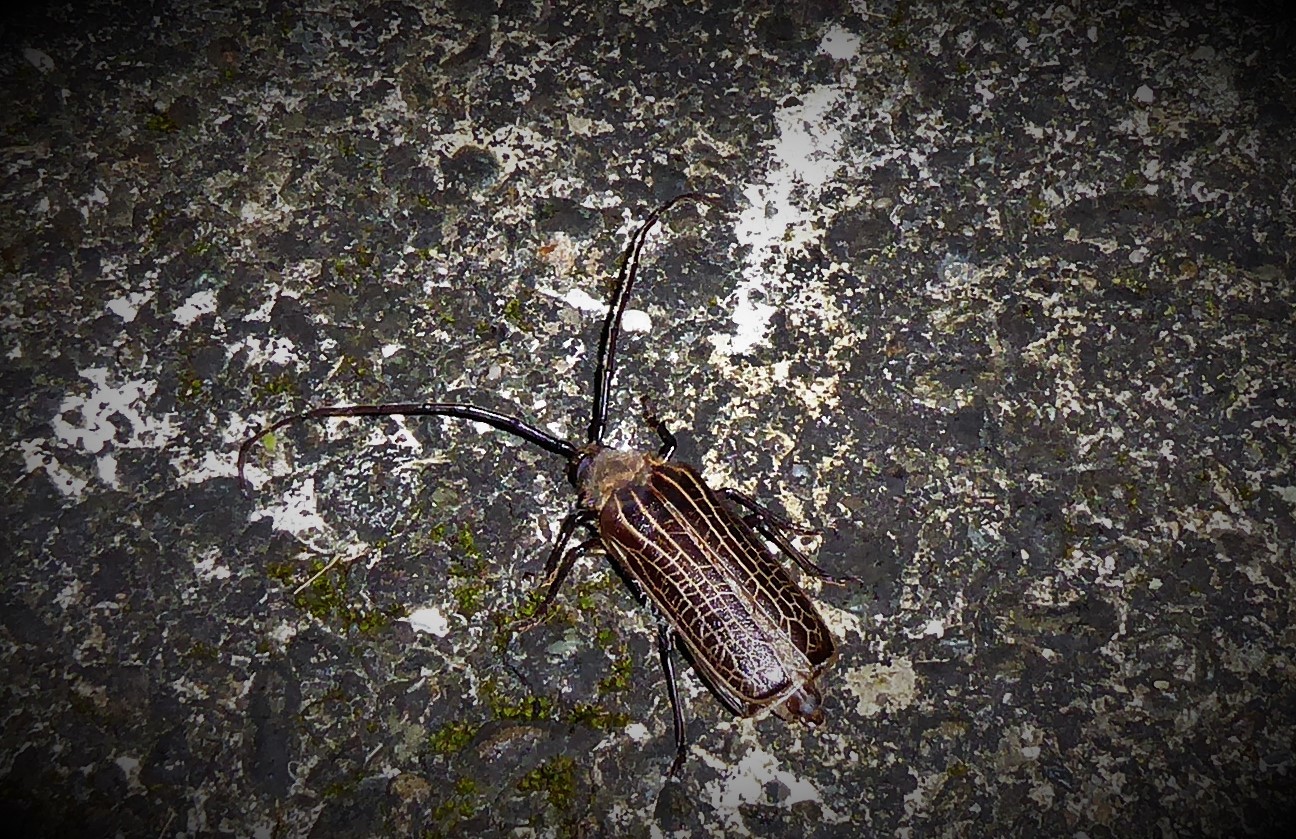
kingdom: Animalia
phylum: Arthropoda
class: Insecta
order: Coleoptera
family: Cerambycidae
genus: Prionoplus
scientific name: Prionoplus reticularis
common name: Huhu beetle
